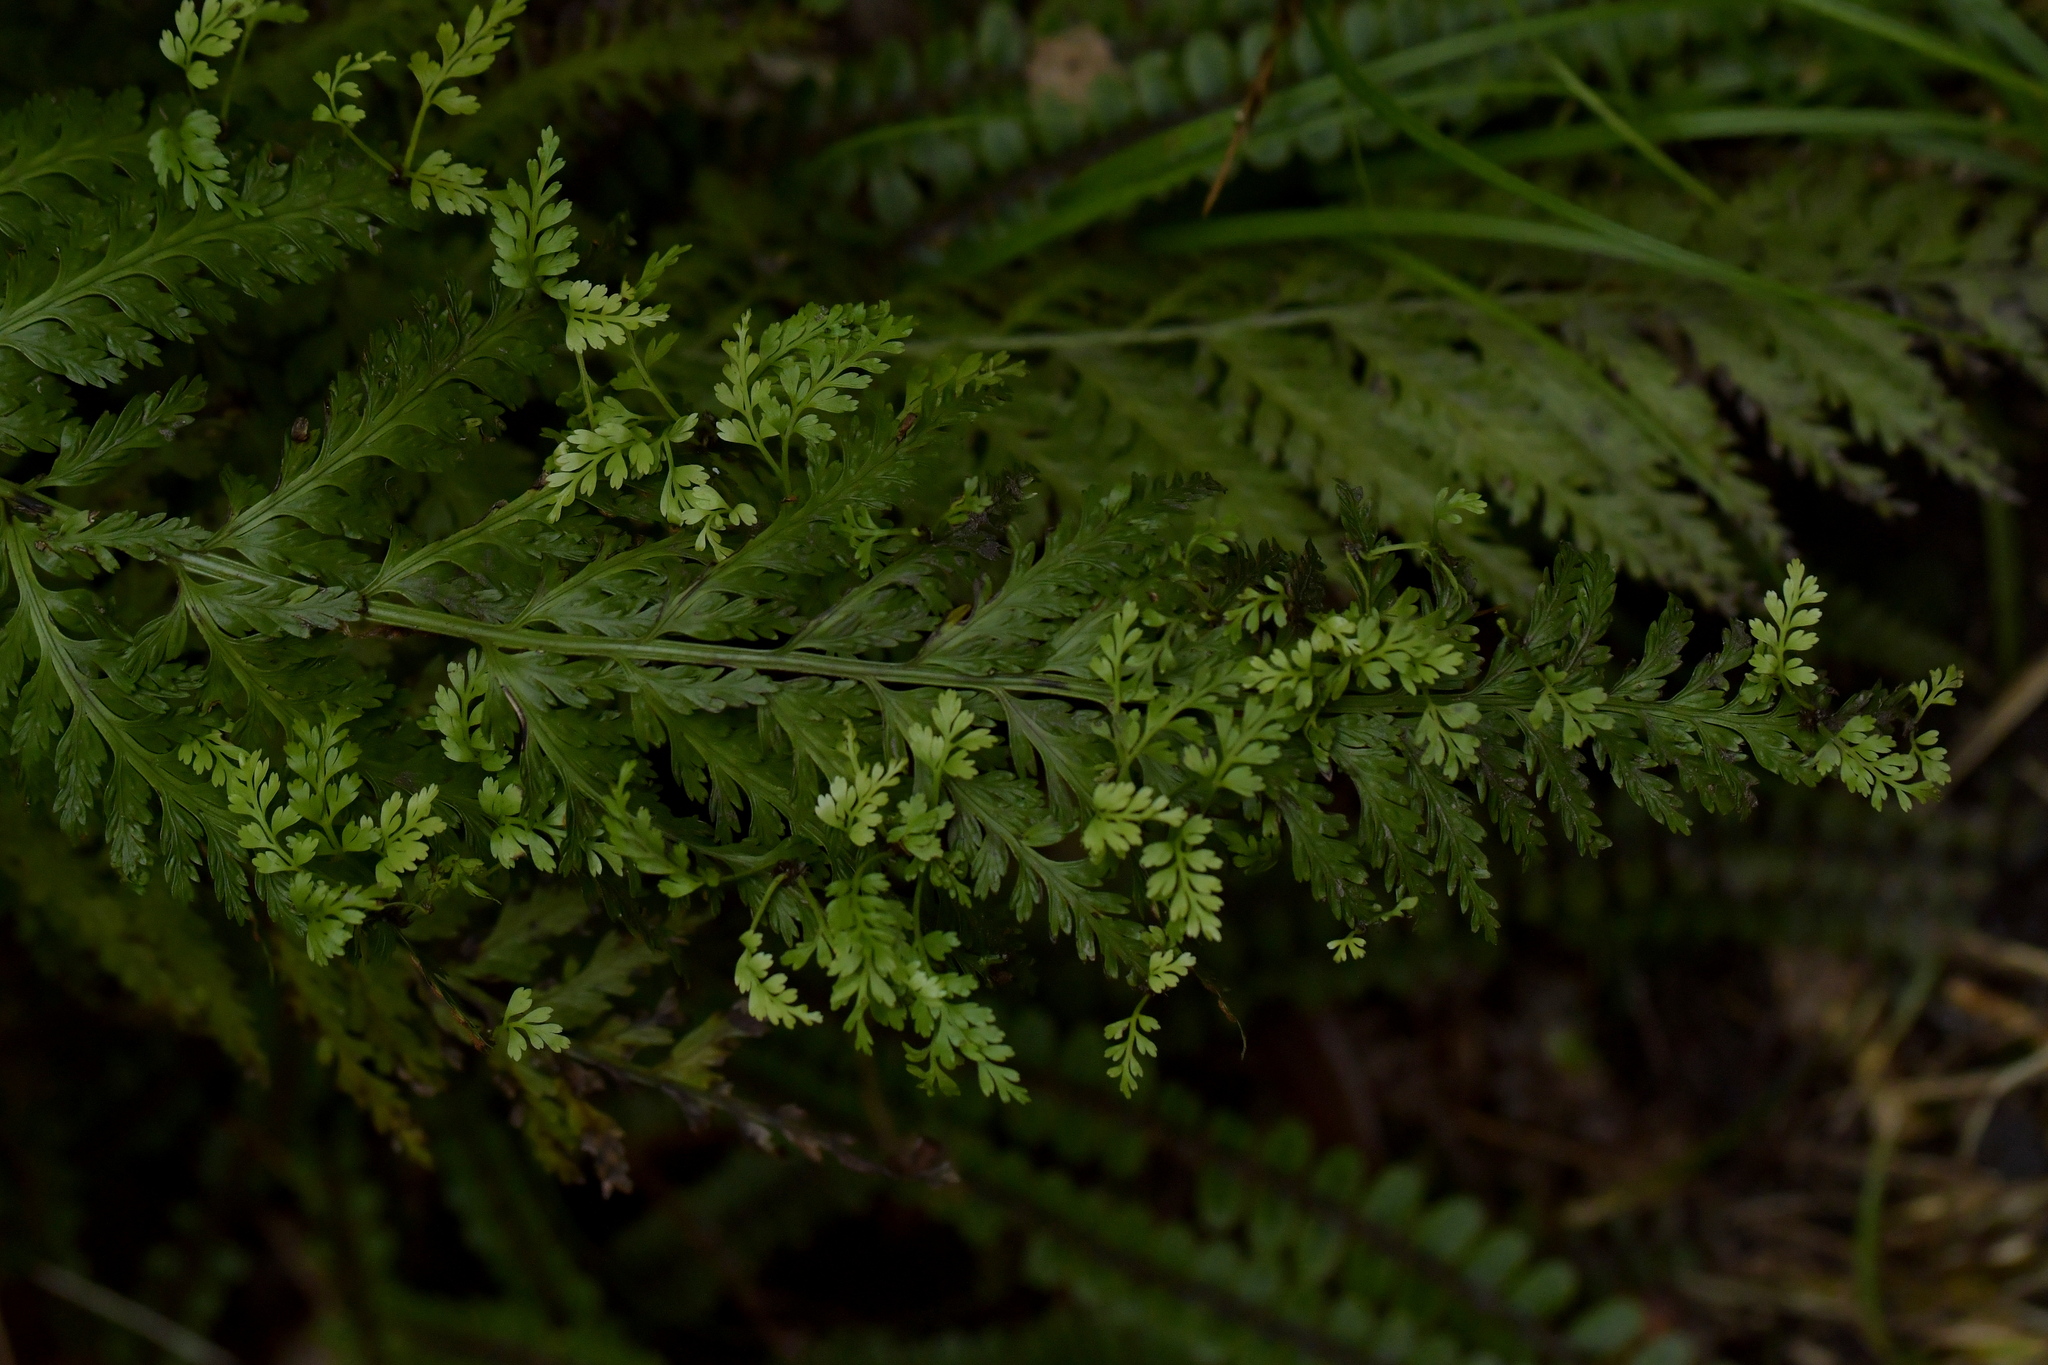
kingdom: Plantae
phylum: Tracheophyta
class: Polypodiopsida
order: Polypodiales
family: Aspleniaceae
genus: Asplenium
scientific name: Asplenium bulbiferum
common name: Mother fern
